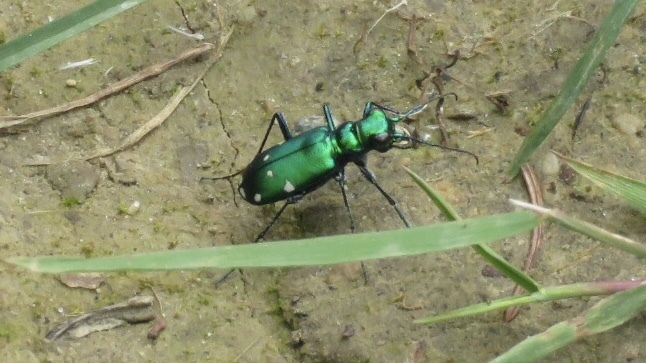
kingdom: Animalia
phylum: Arthropoda
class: Insecta
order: Coleoptera
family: Carabidae
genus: Cicindela
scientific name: Cicindela sexguttata
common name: Six-spotted tiger beetle
